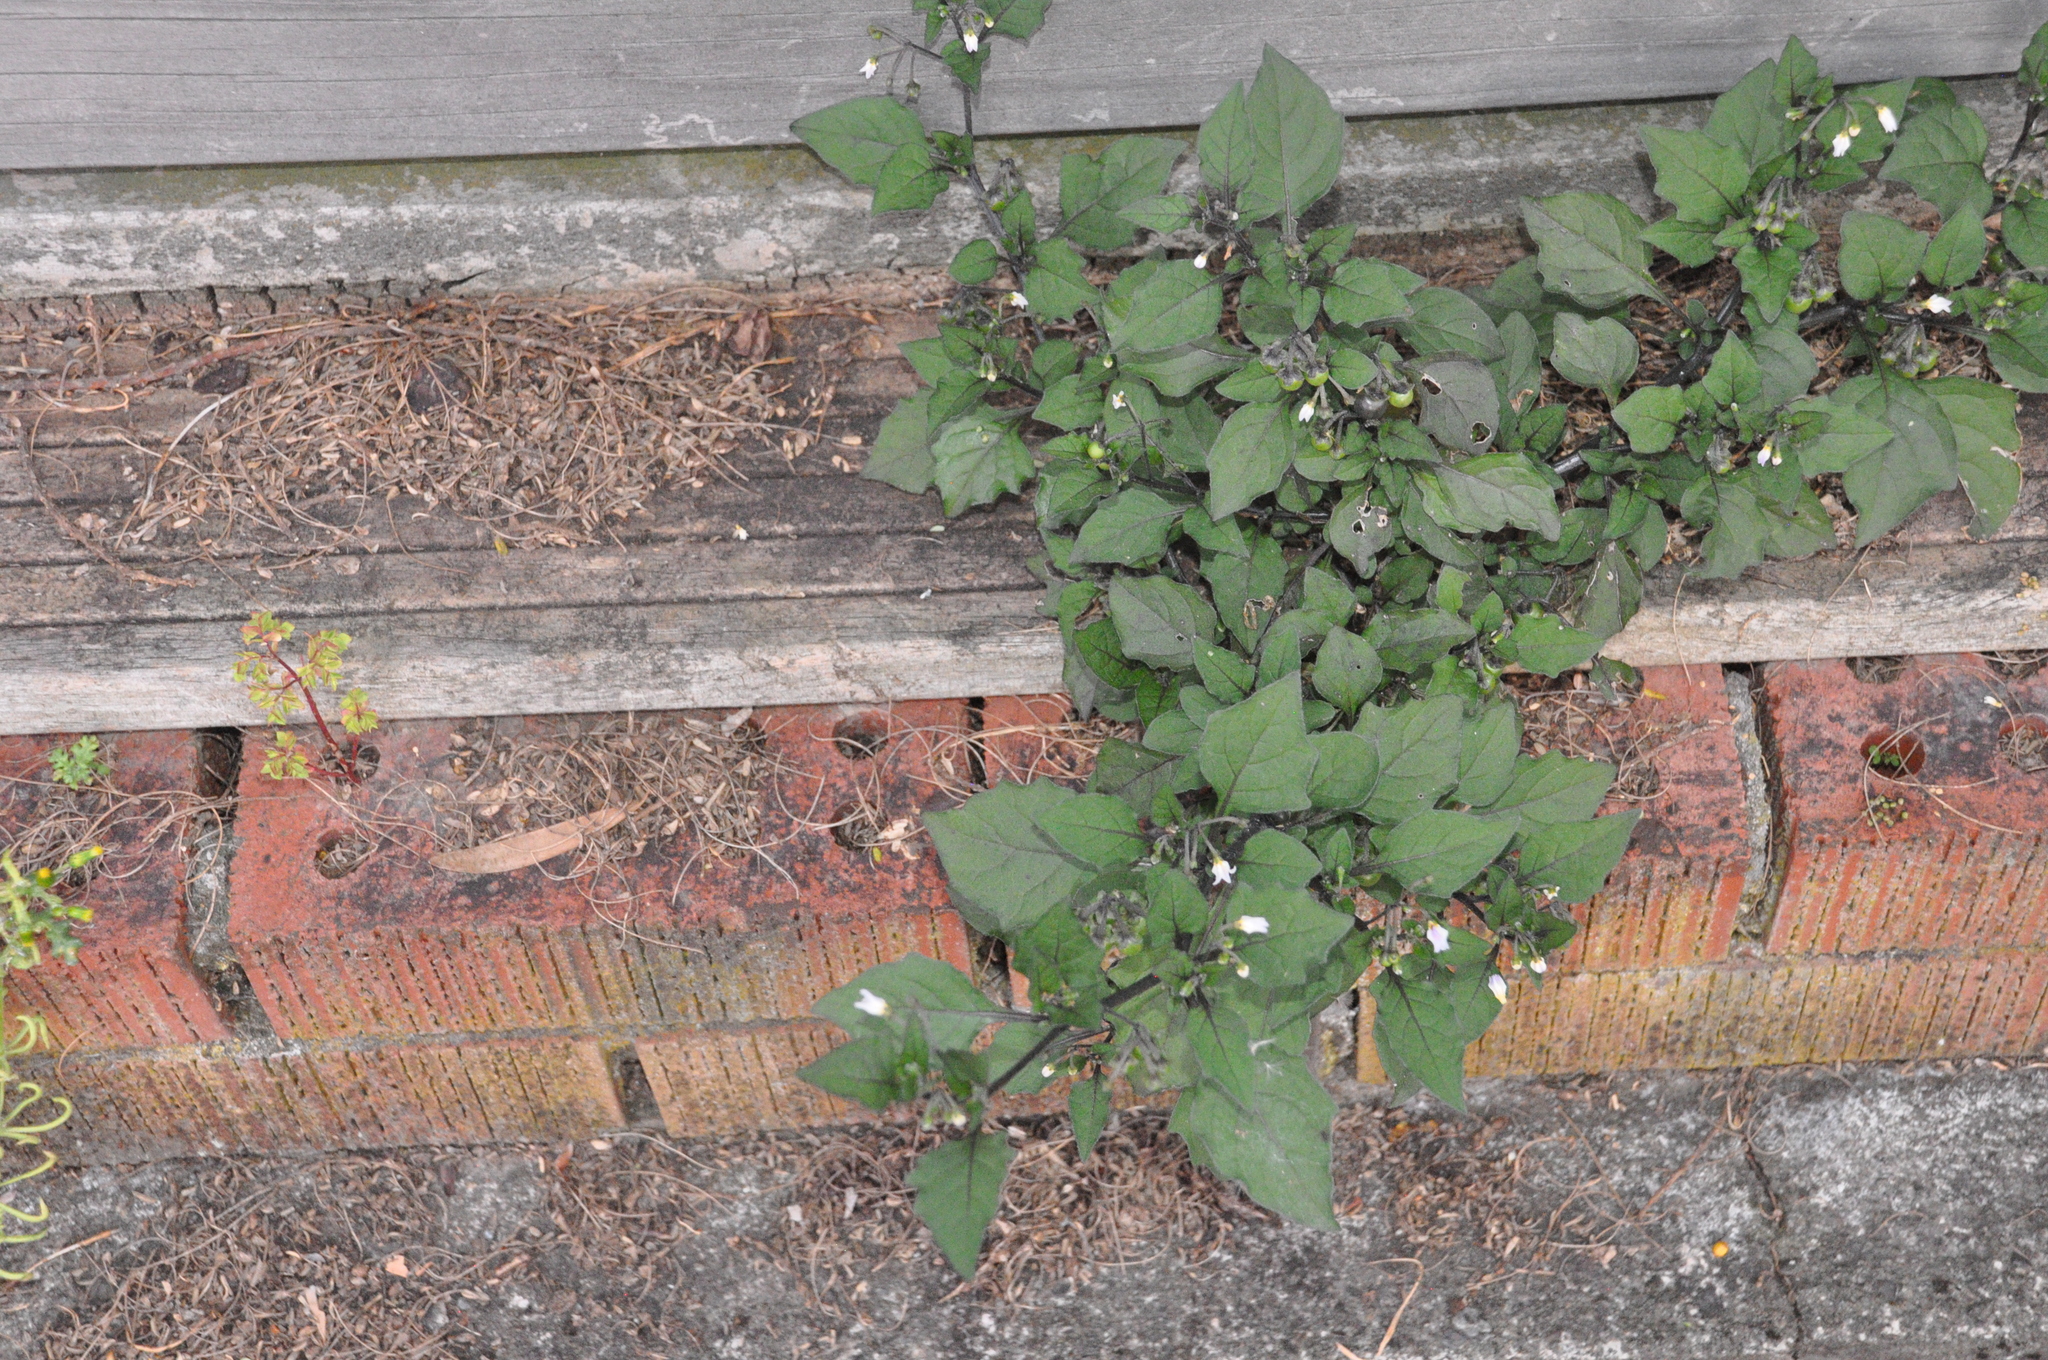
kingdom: Plantae
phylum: Tracheophyta
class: Magnoliopsida
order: Solanales
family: Solanaceae
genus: Solanum
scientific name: Solanum nigrum
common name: Black nightshade
